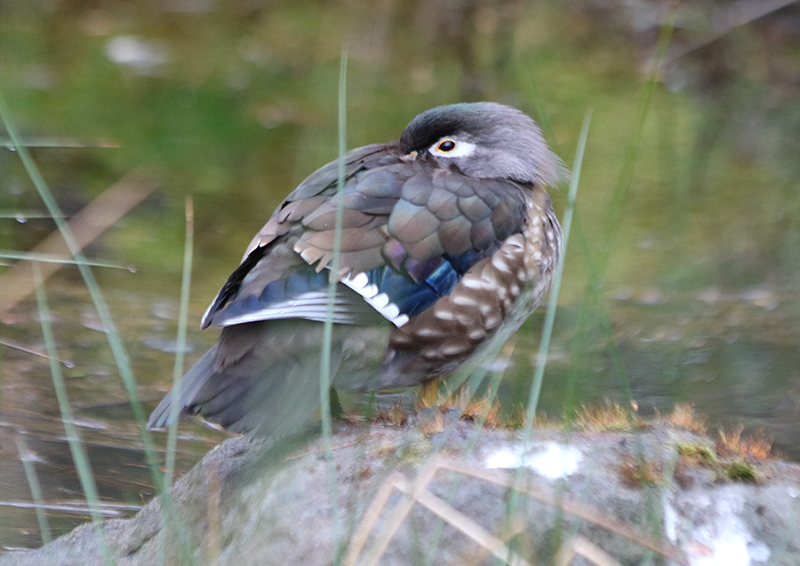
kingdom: Animalia
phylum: Chordata
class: Aves
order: Anseriformes
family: Anatidae
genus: Aix
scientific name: Aix sponsa
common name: Wood duck
